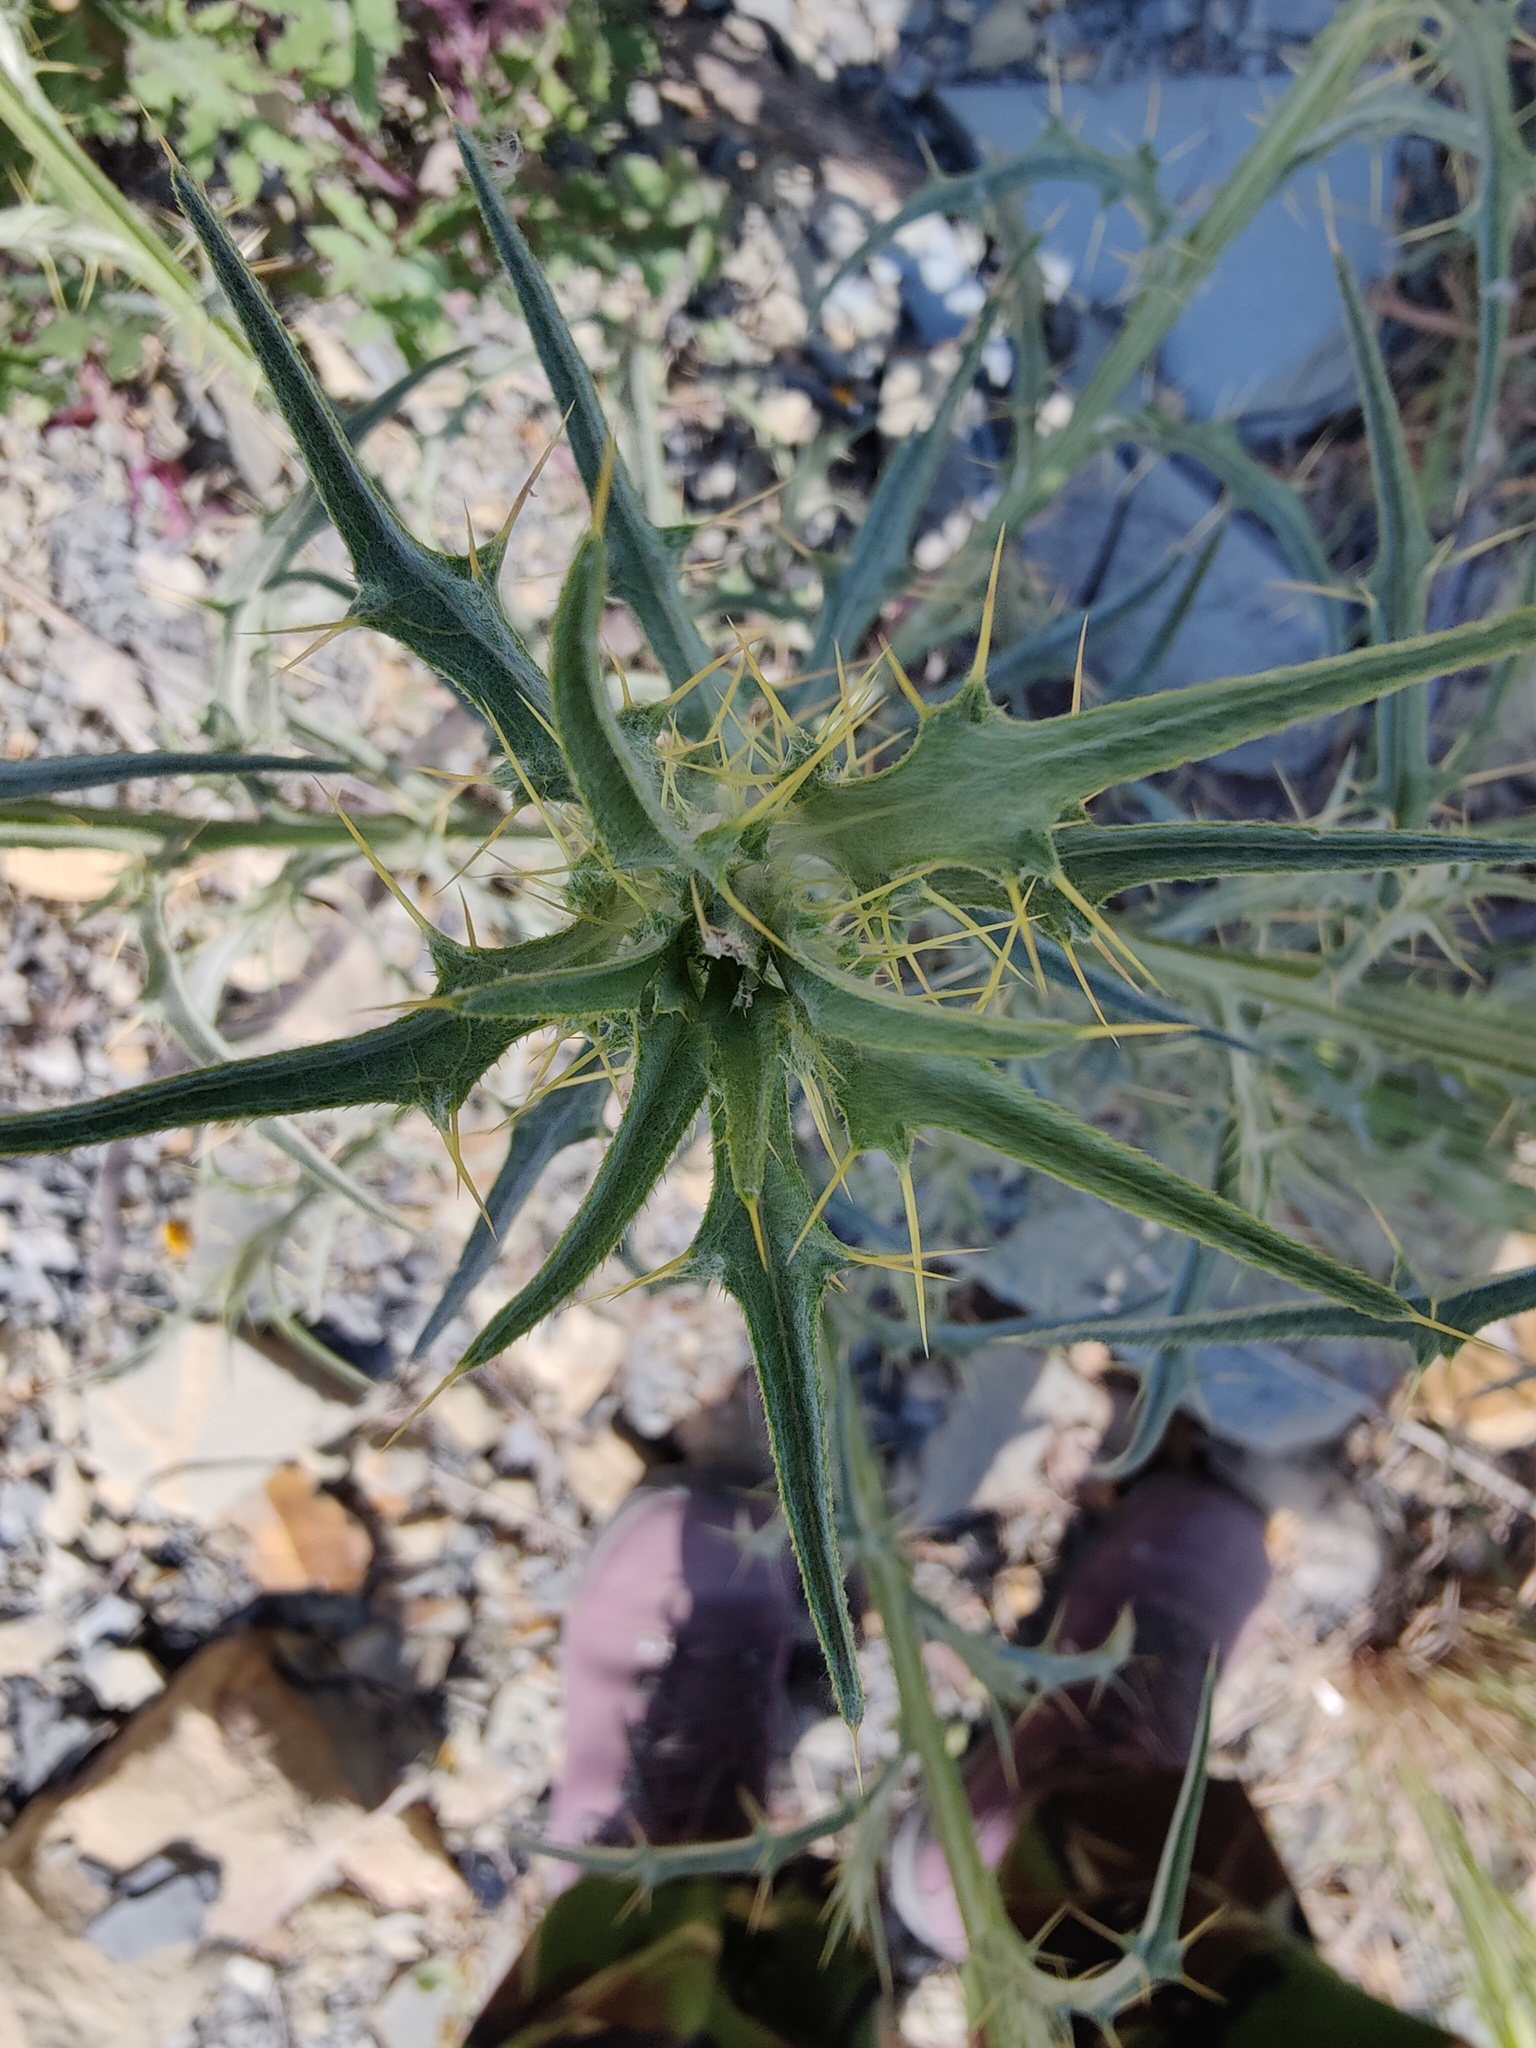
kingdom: Plantae
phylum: Tracheophyta
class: Magnoliopsida
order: Asterales
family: Asteraceae
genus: Picnomon
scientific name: Picnomon acarna
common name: Soldier thistle
